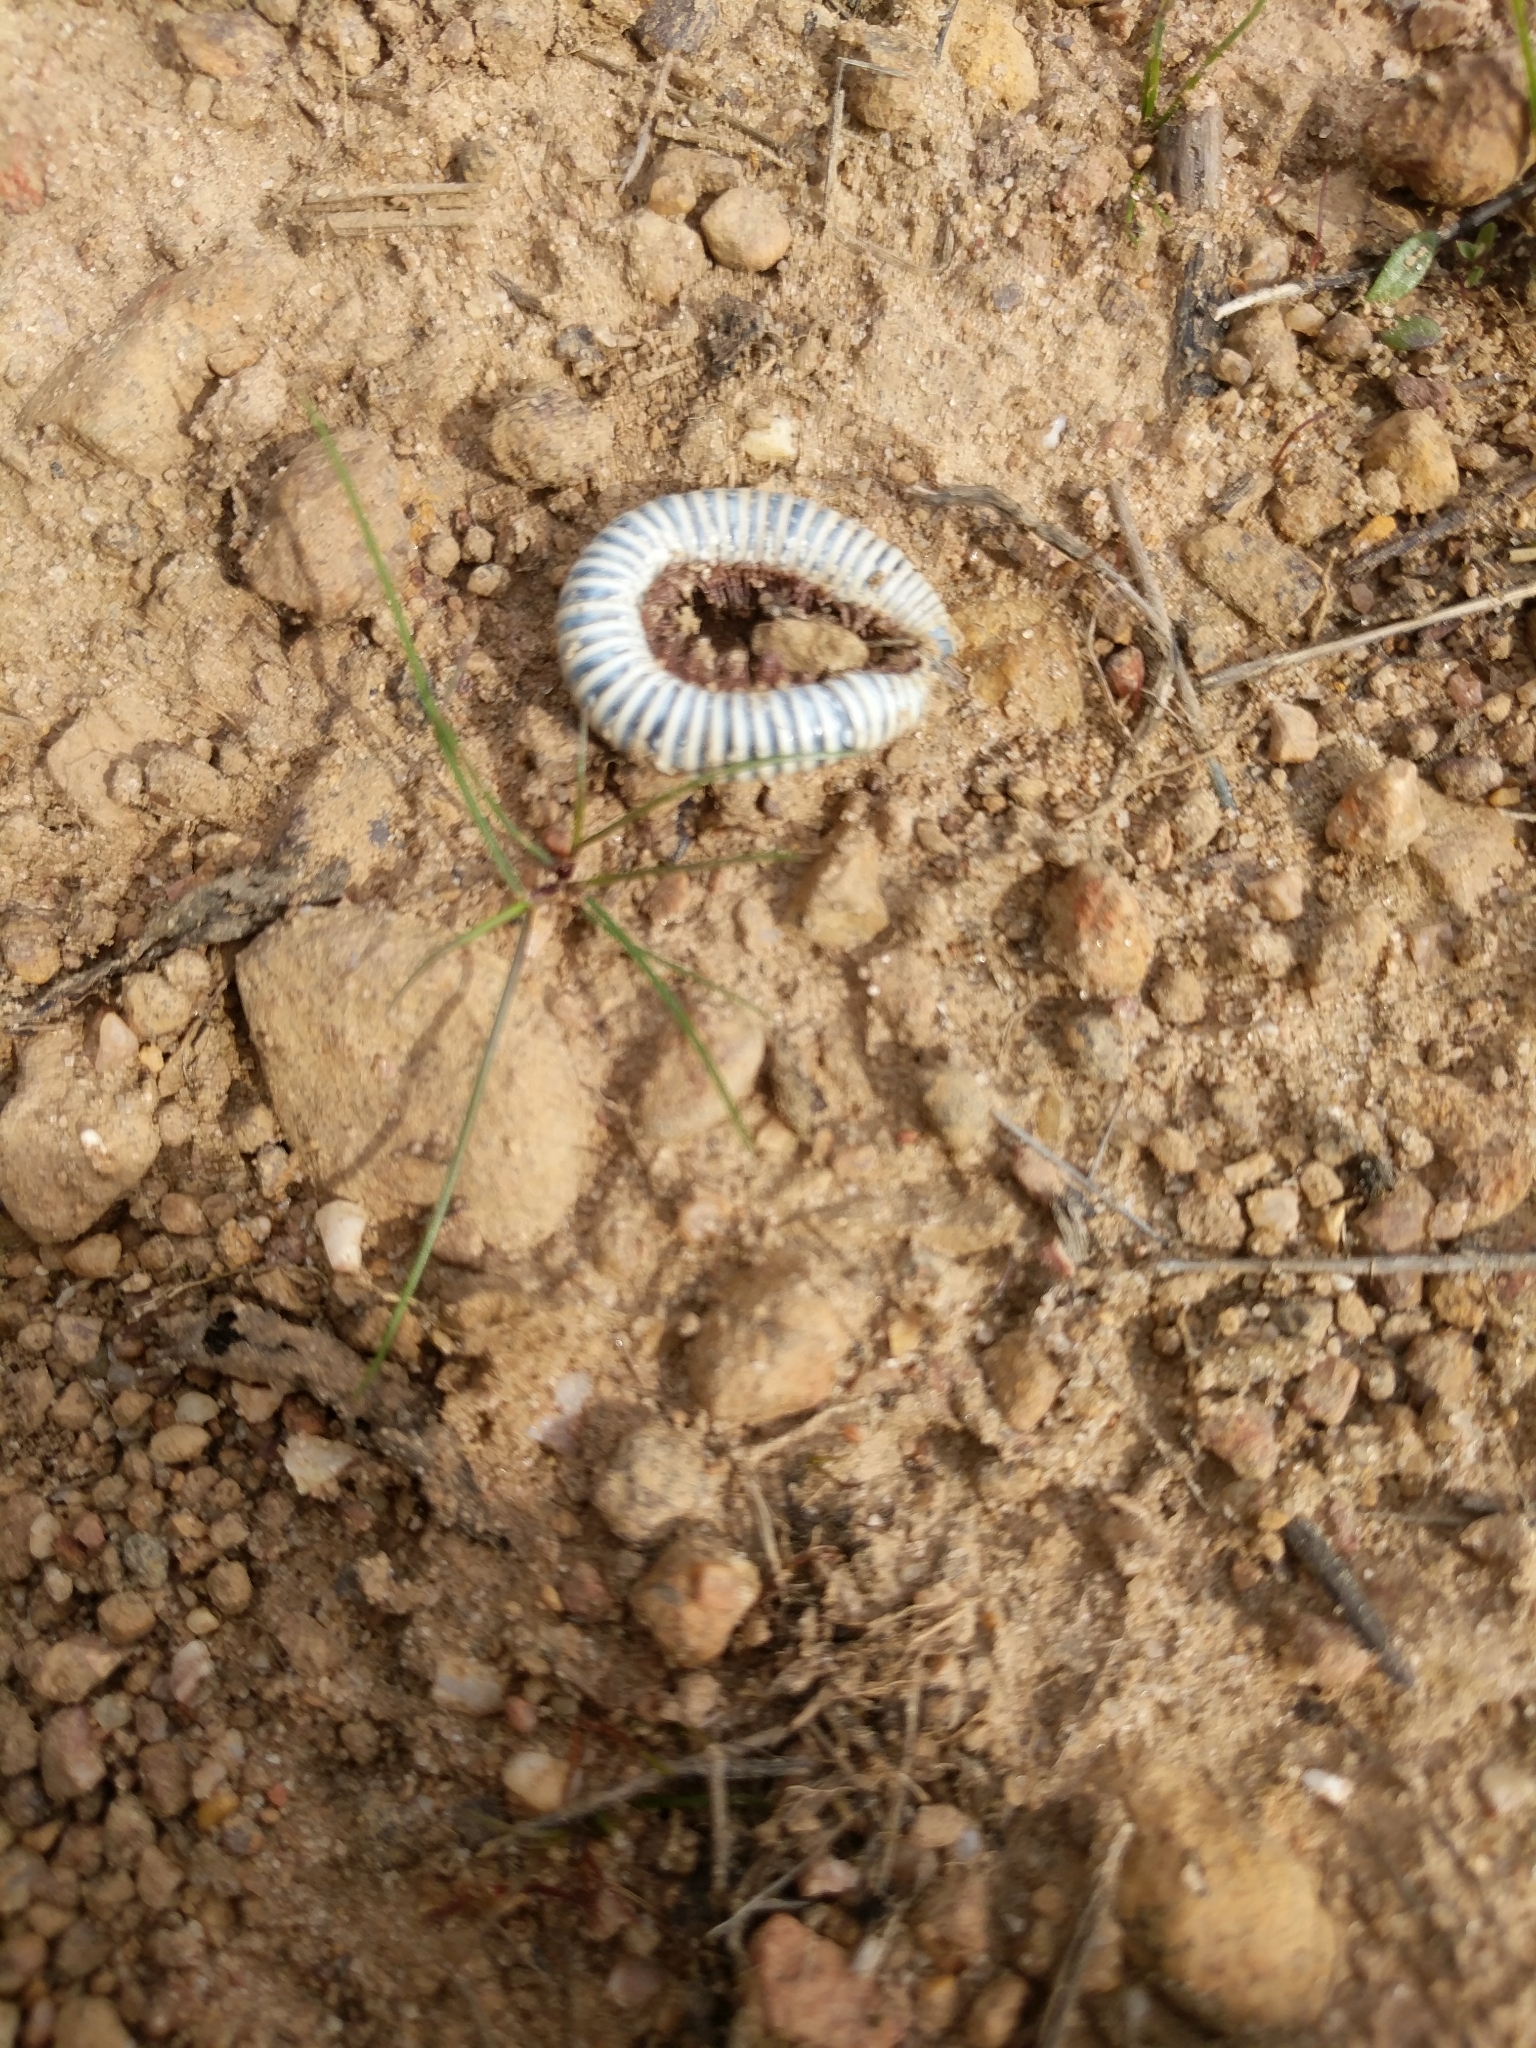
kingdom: Animalia
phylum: Arthropoda
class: Diplopoda
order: Julida
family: Julidae
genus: Ommatoiulus
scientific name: Ommatoiulus lusitanus
